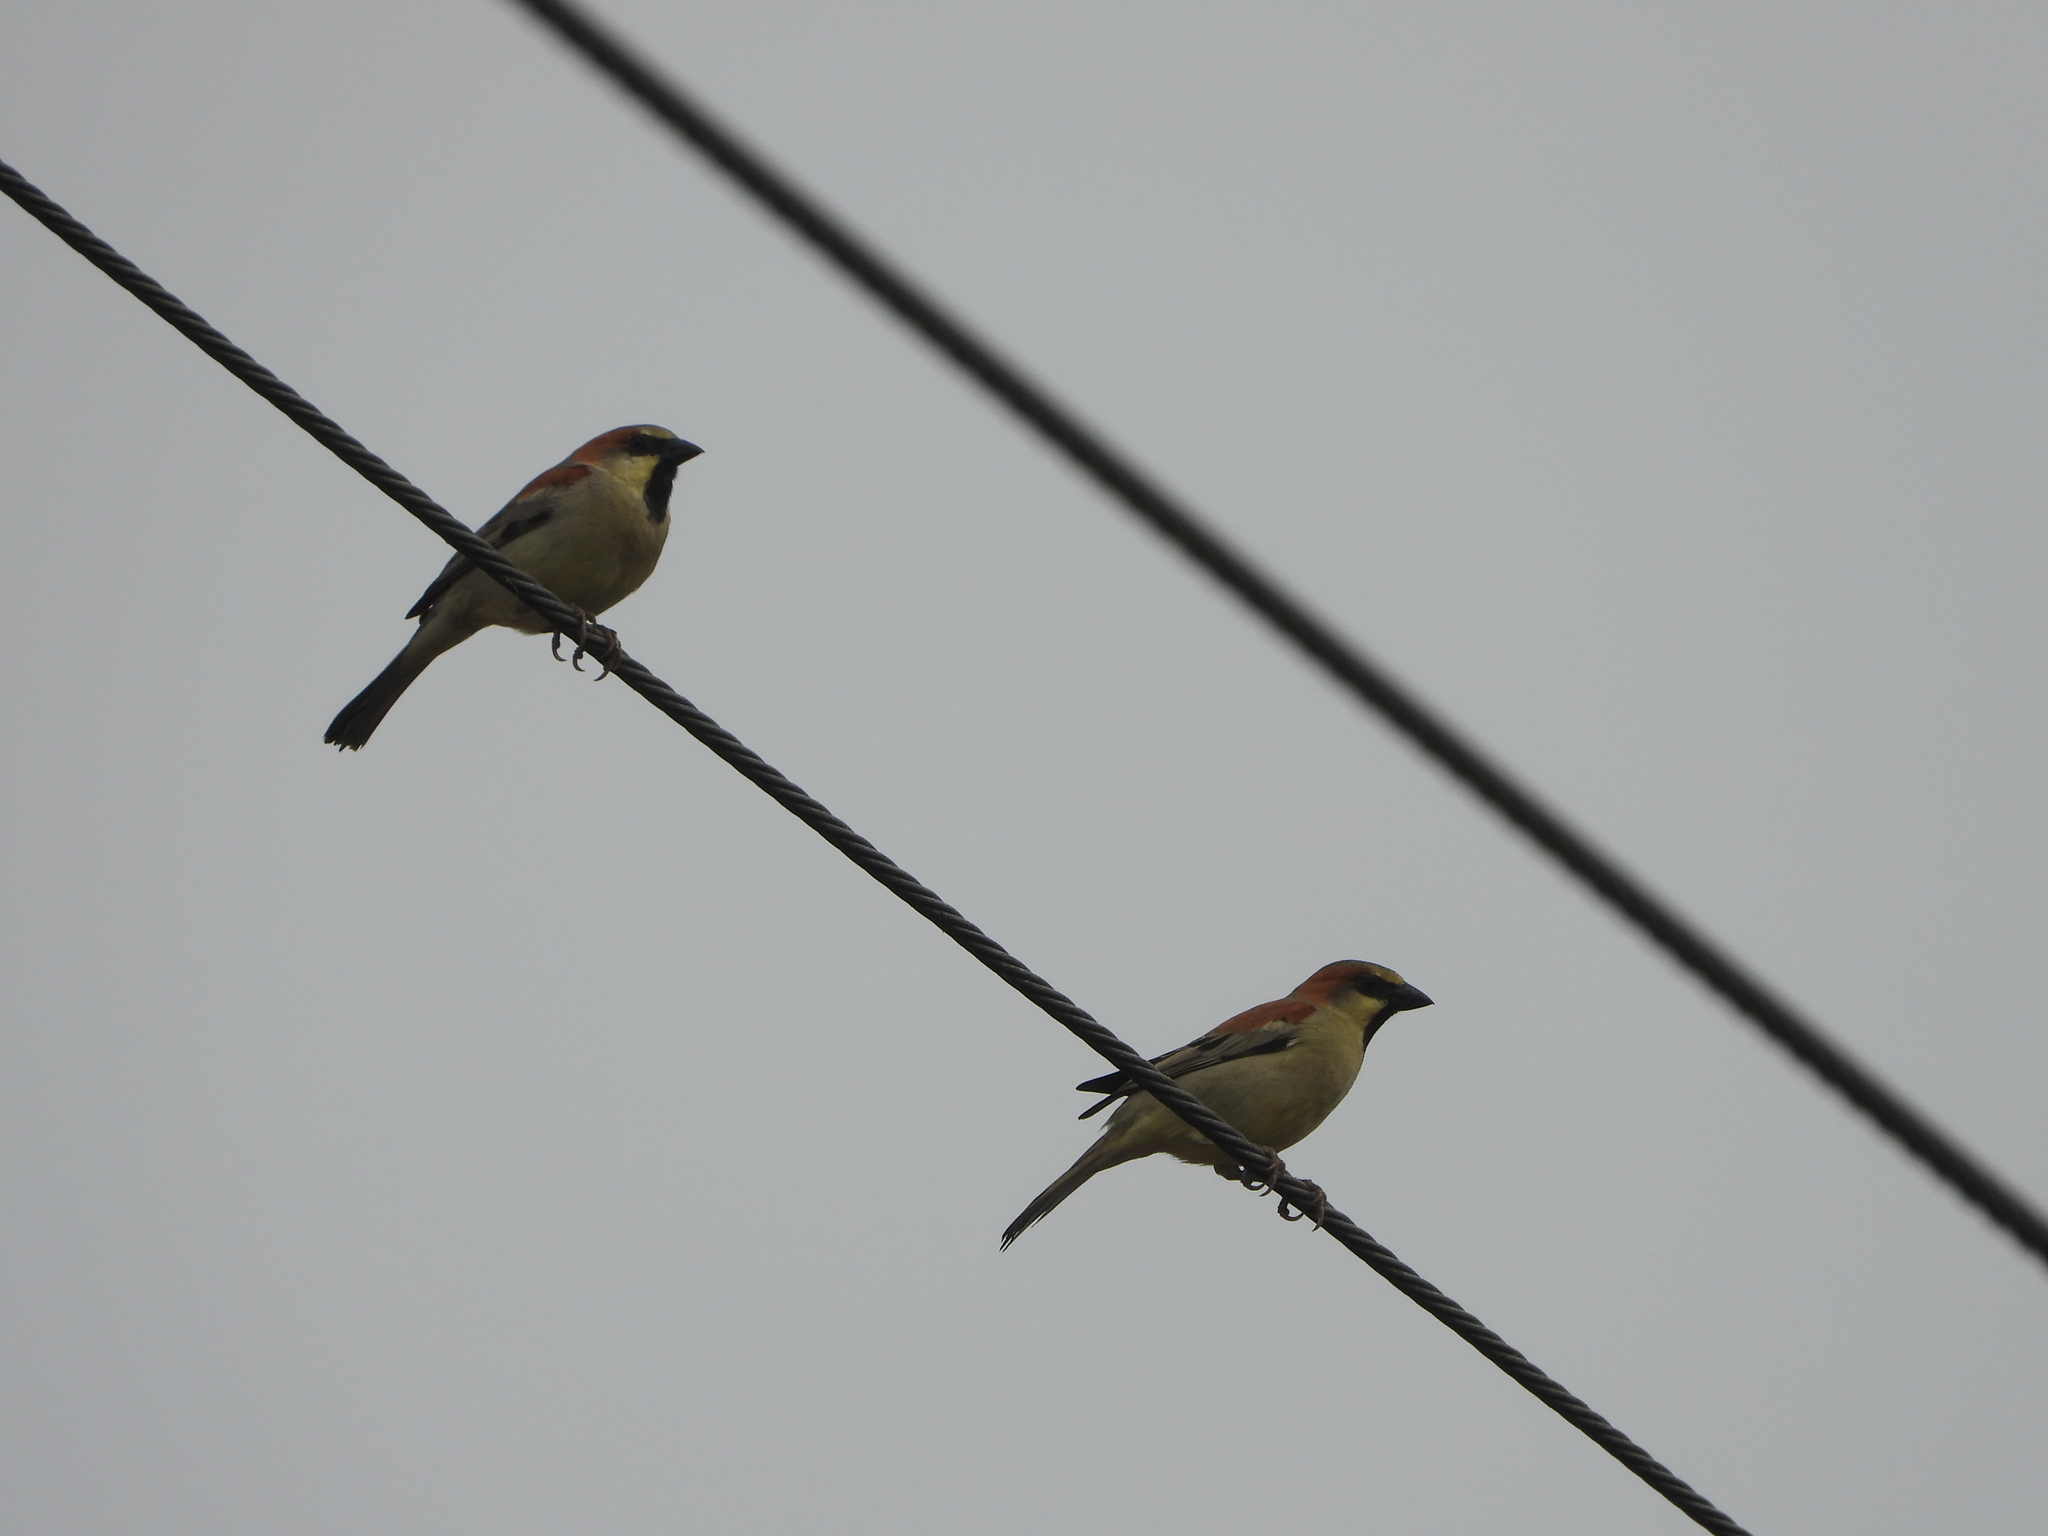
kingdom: Animalia
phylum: Chordata
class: Aves
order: Passeriformes
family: Passeridae
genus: Passer
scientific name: Passer flaveolus
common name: Plain-backed sparrow
